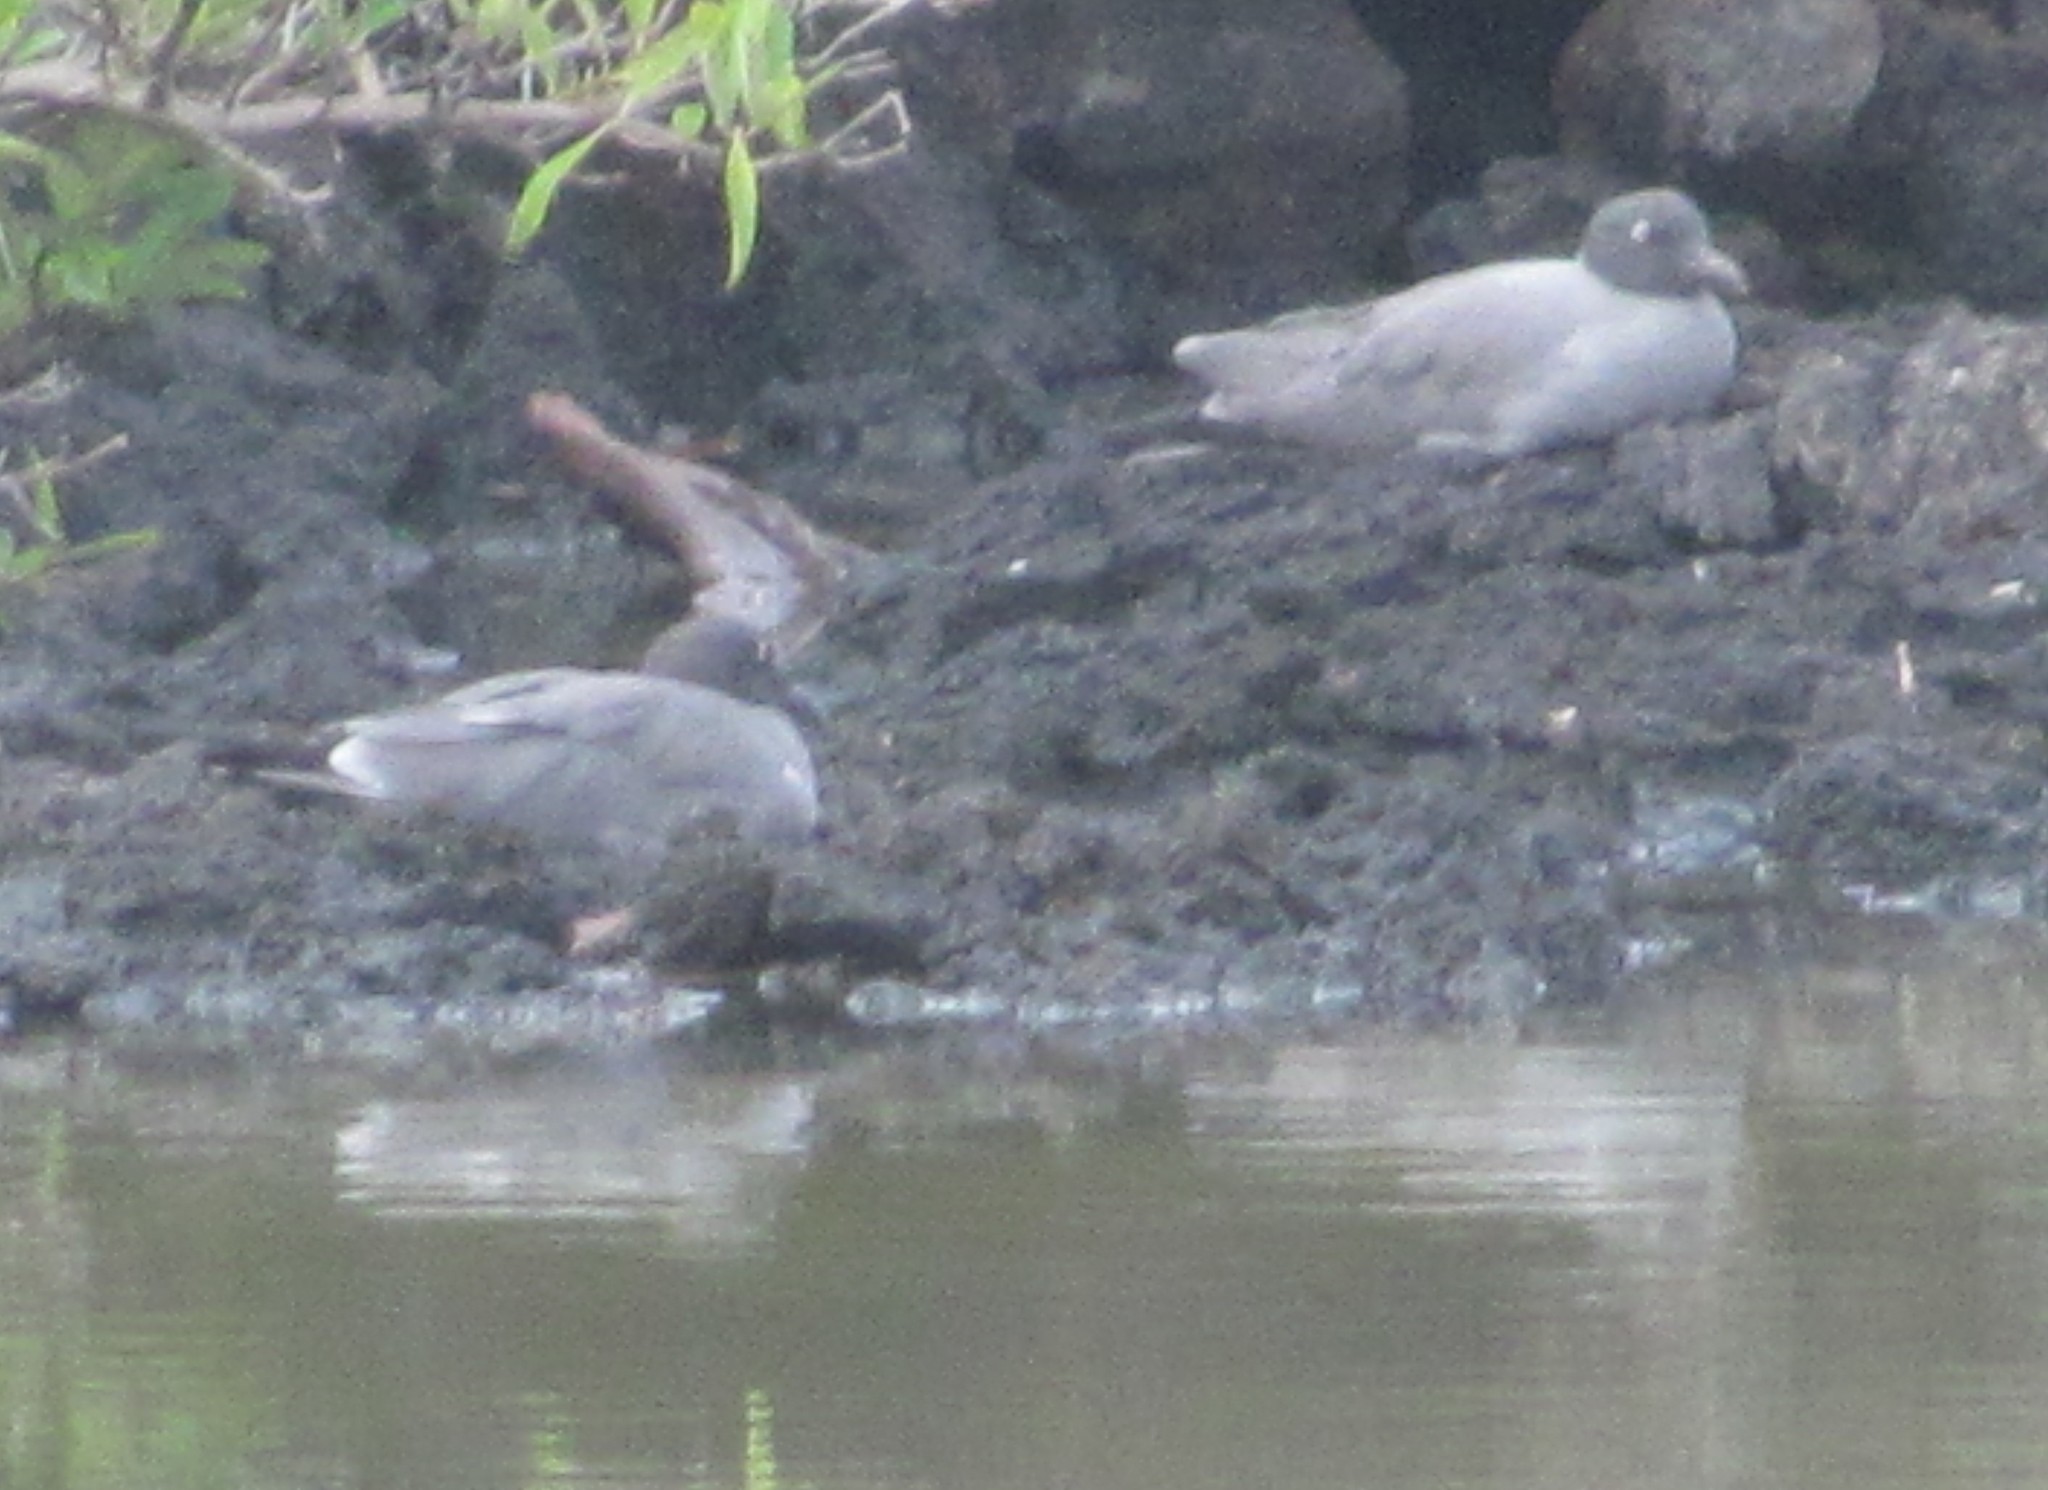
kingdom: Animalia
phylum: Chordata
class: Aves
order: Charadriiformes
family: Laridae
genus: Creagrus
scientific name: Creagrus furcatus
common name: Swallow-tailed gull
